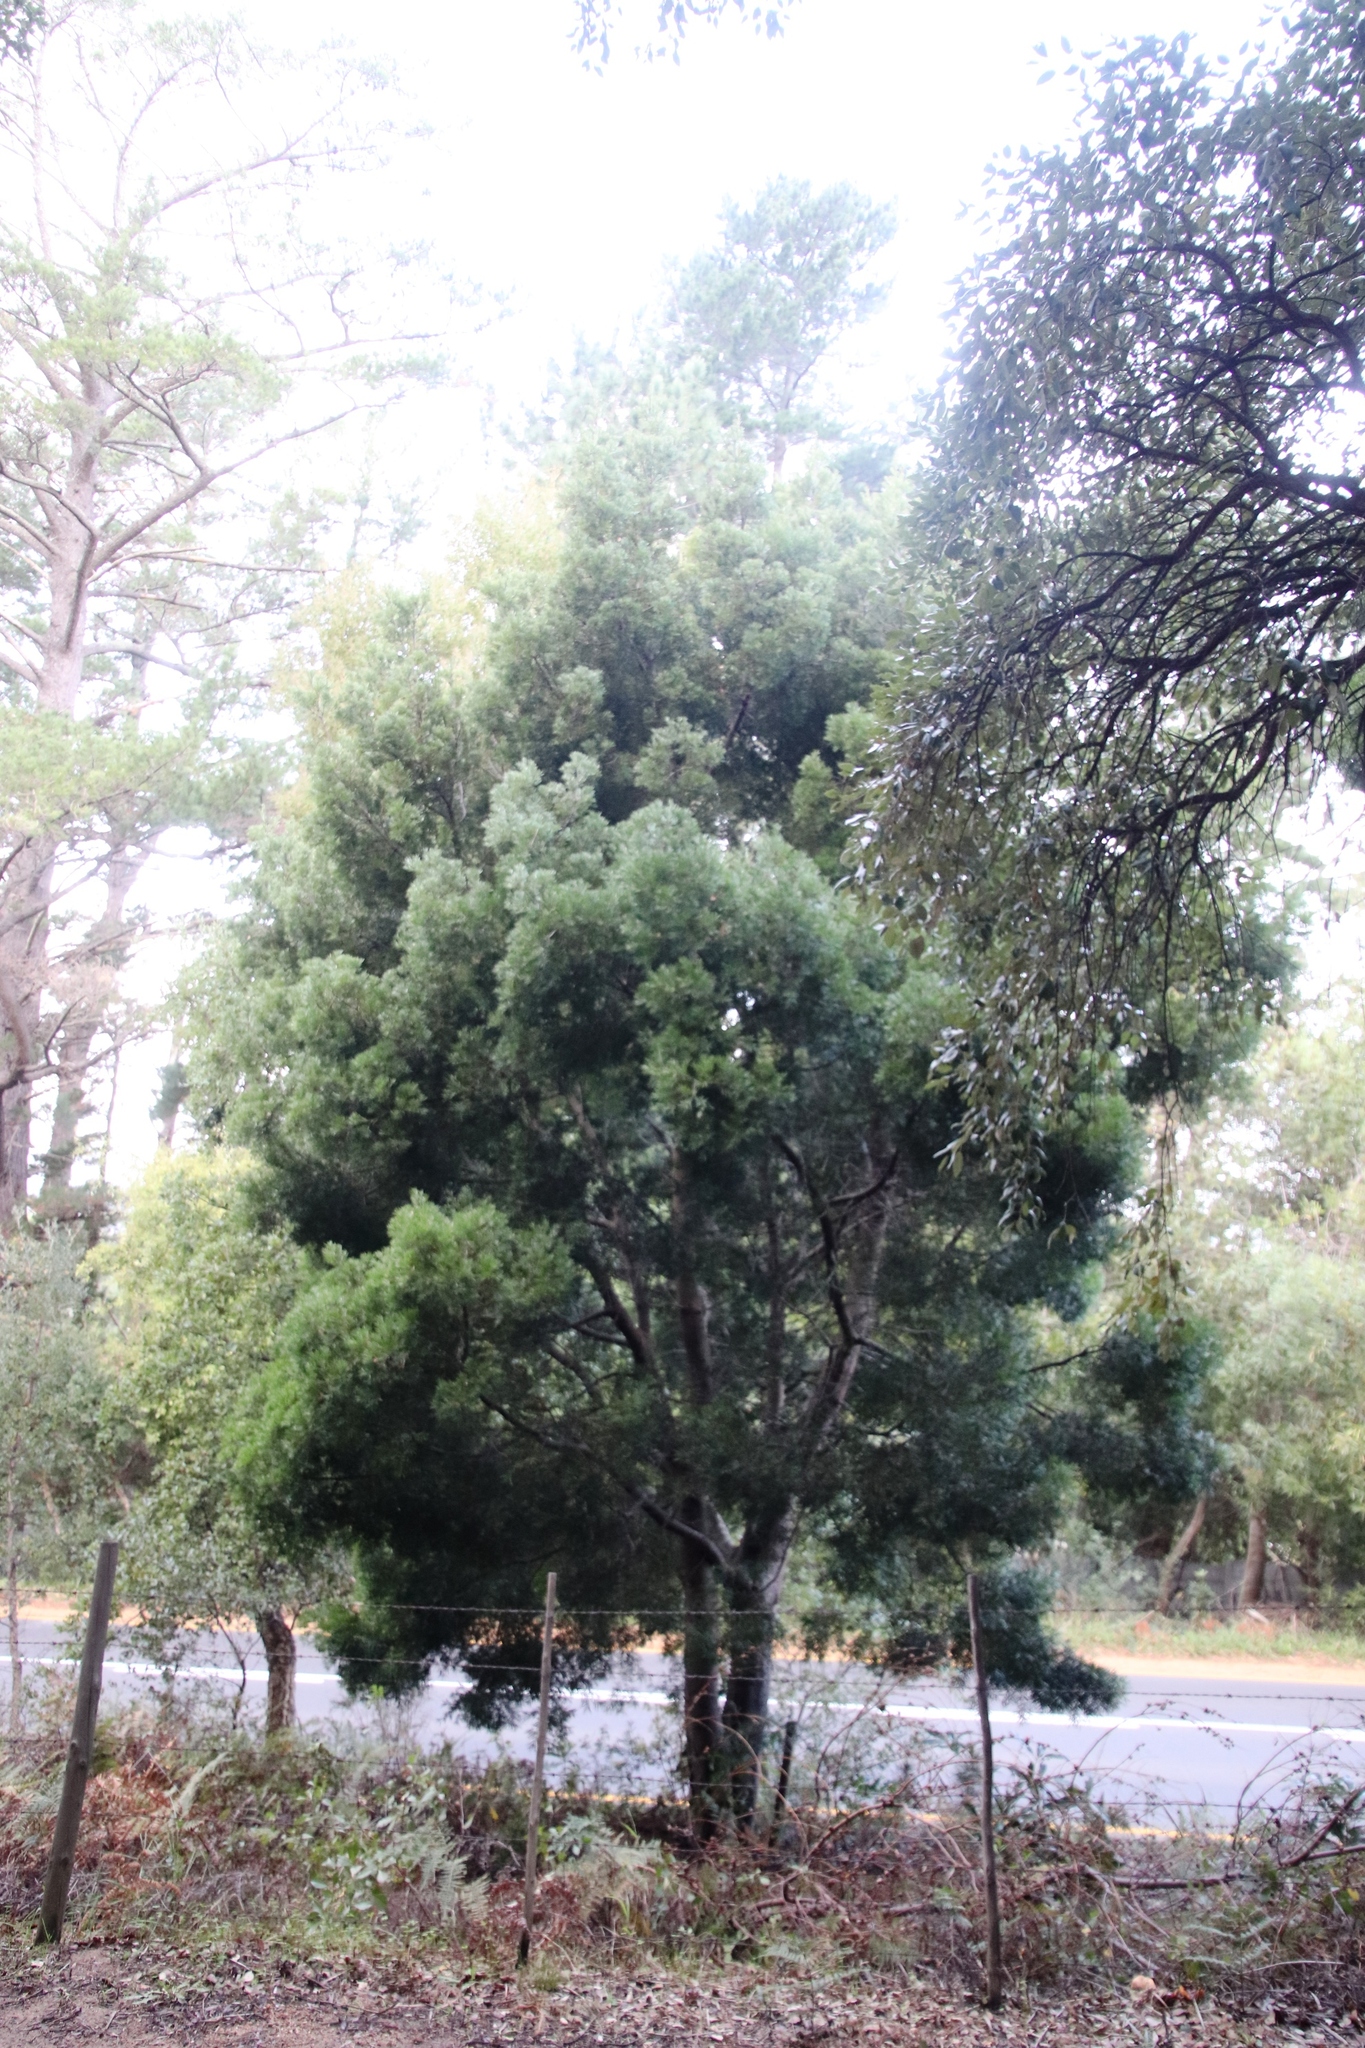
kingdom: Plantae
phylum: Tracheophyta
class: Pinopsida
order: Pinales
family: Podocarpaceae
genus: Afrocarpus
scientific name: Afrocarpus falcatus
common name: Bastard yellowwood
